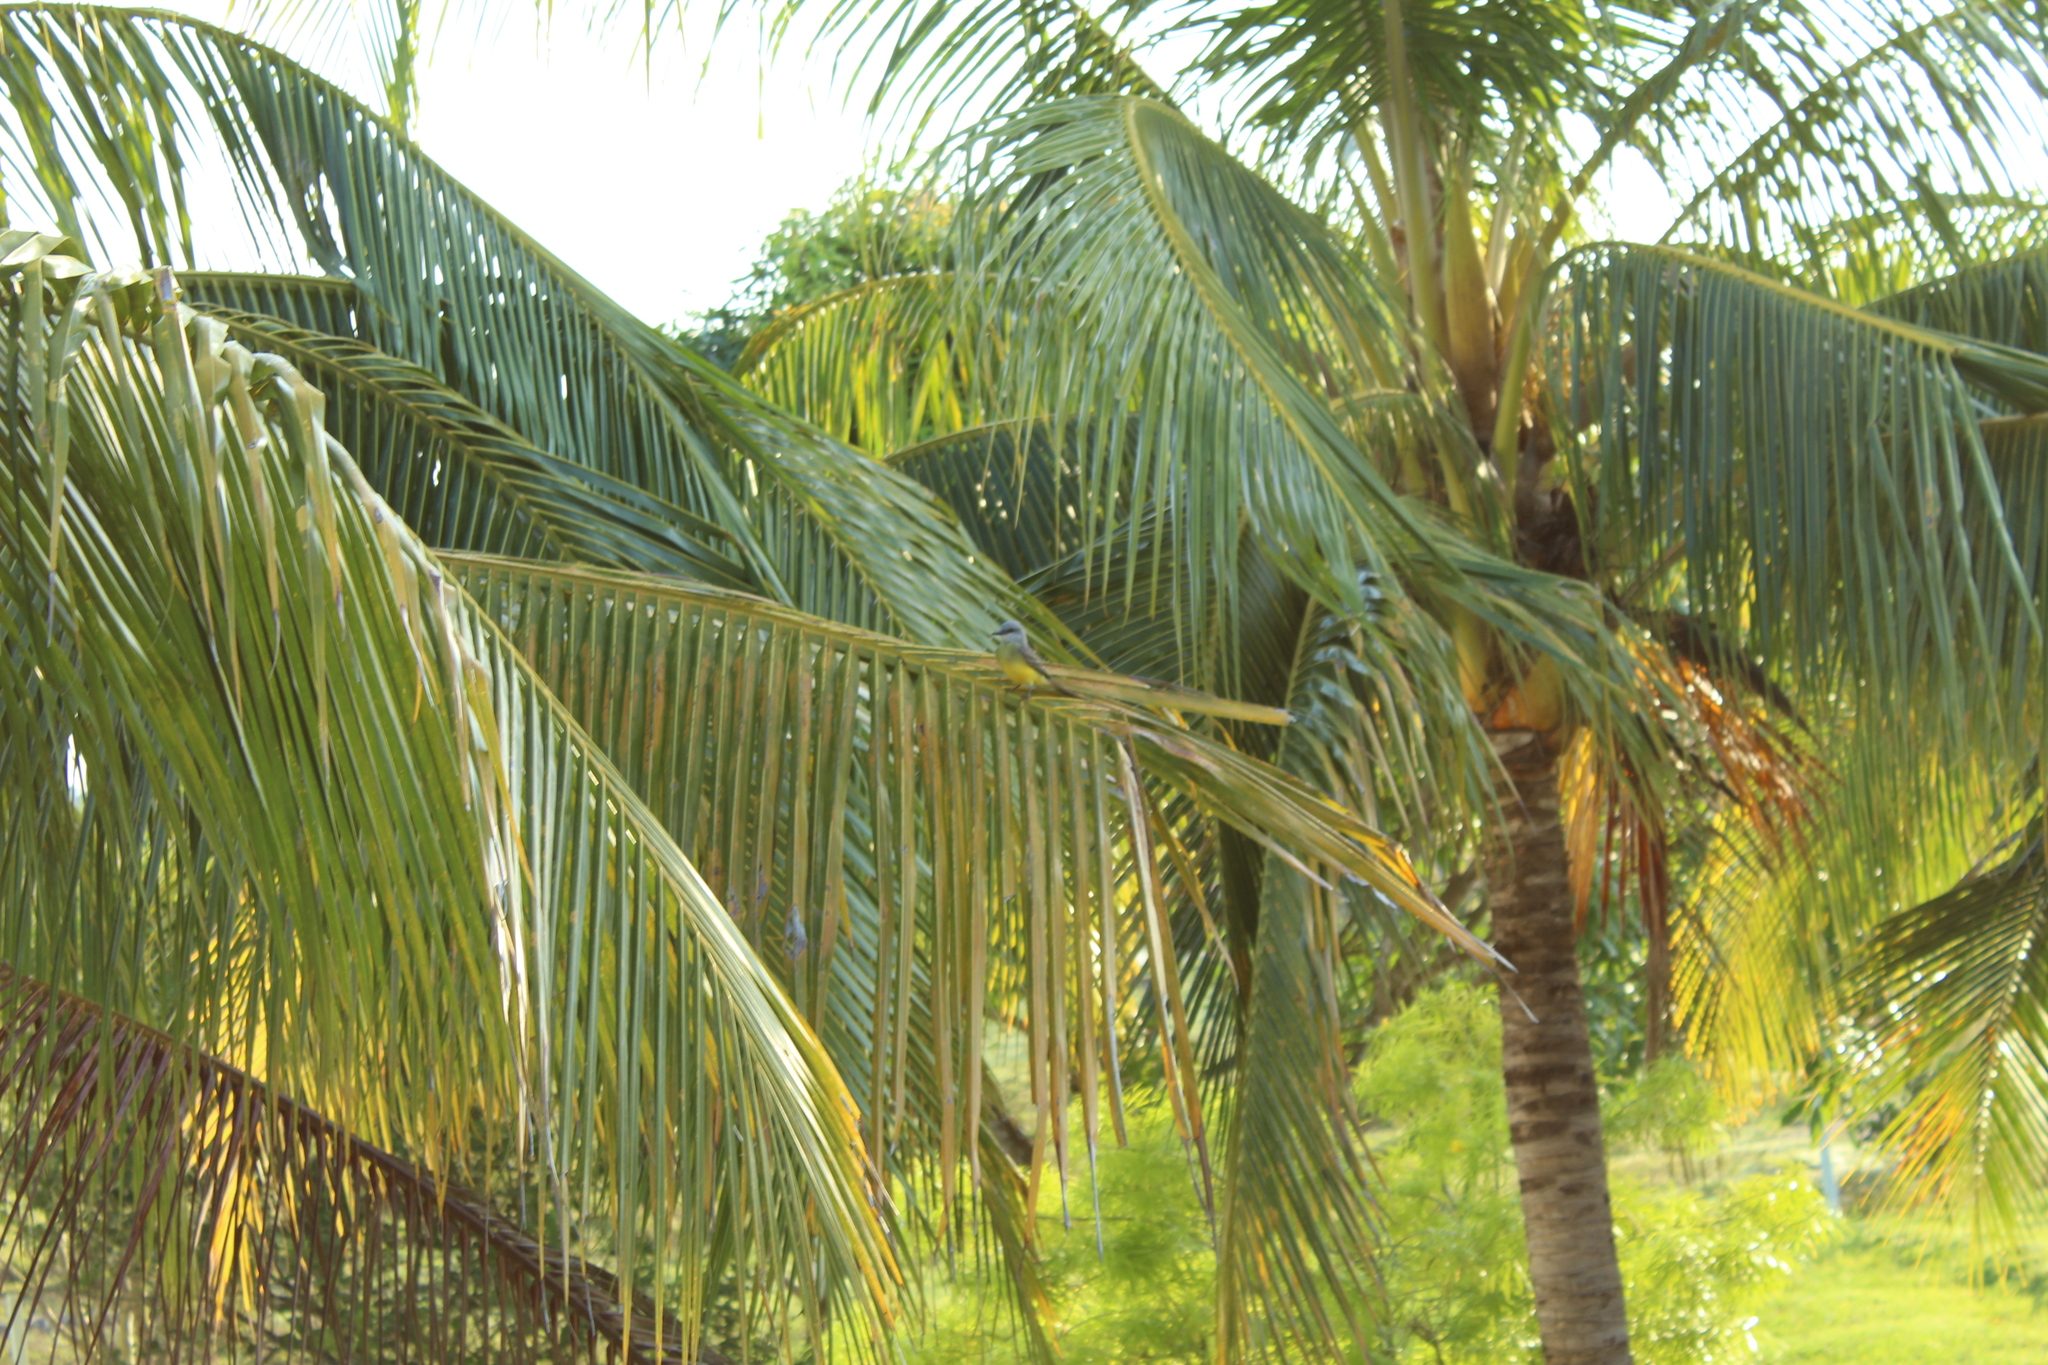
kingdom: Animalia
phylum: Chordata
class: Aves
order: Passeriformes
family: Tyrannidae
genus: Tyrannus
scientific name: Tyrannus melancholicus
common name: Tropical kingbird
